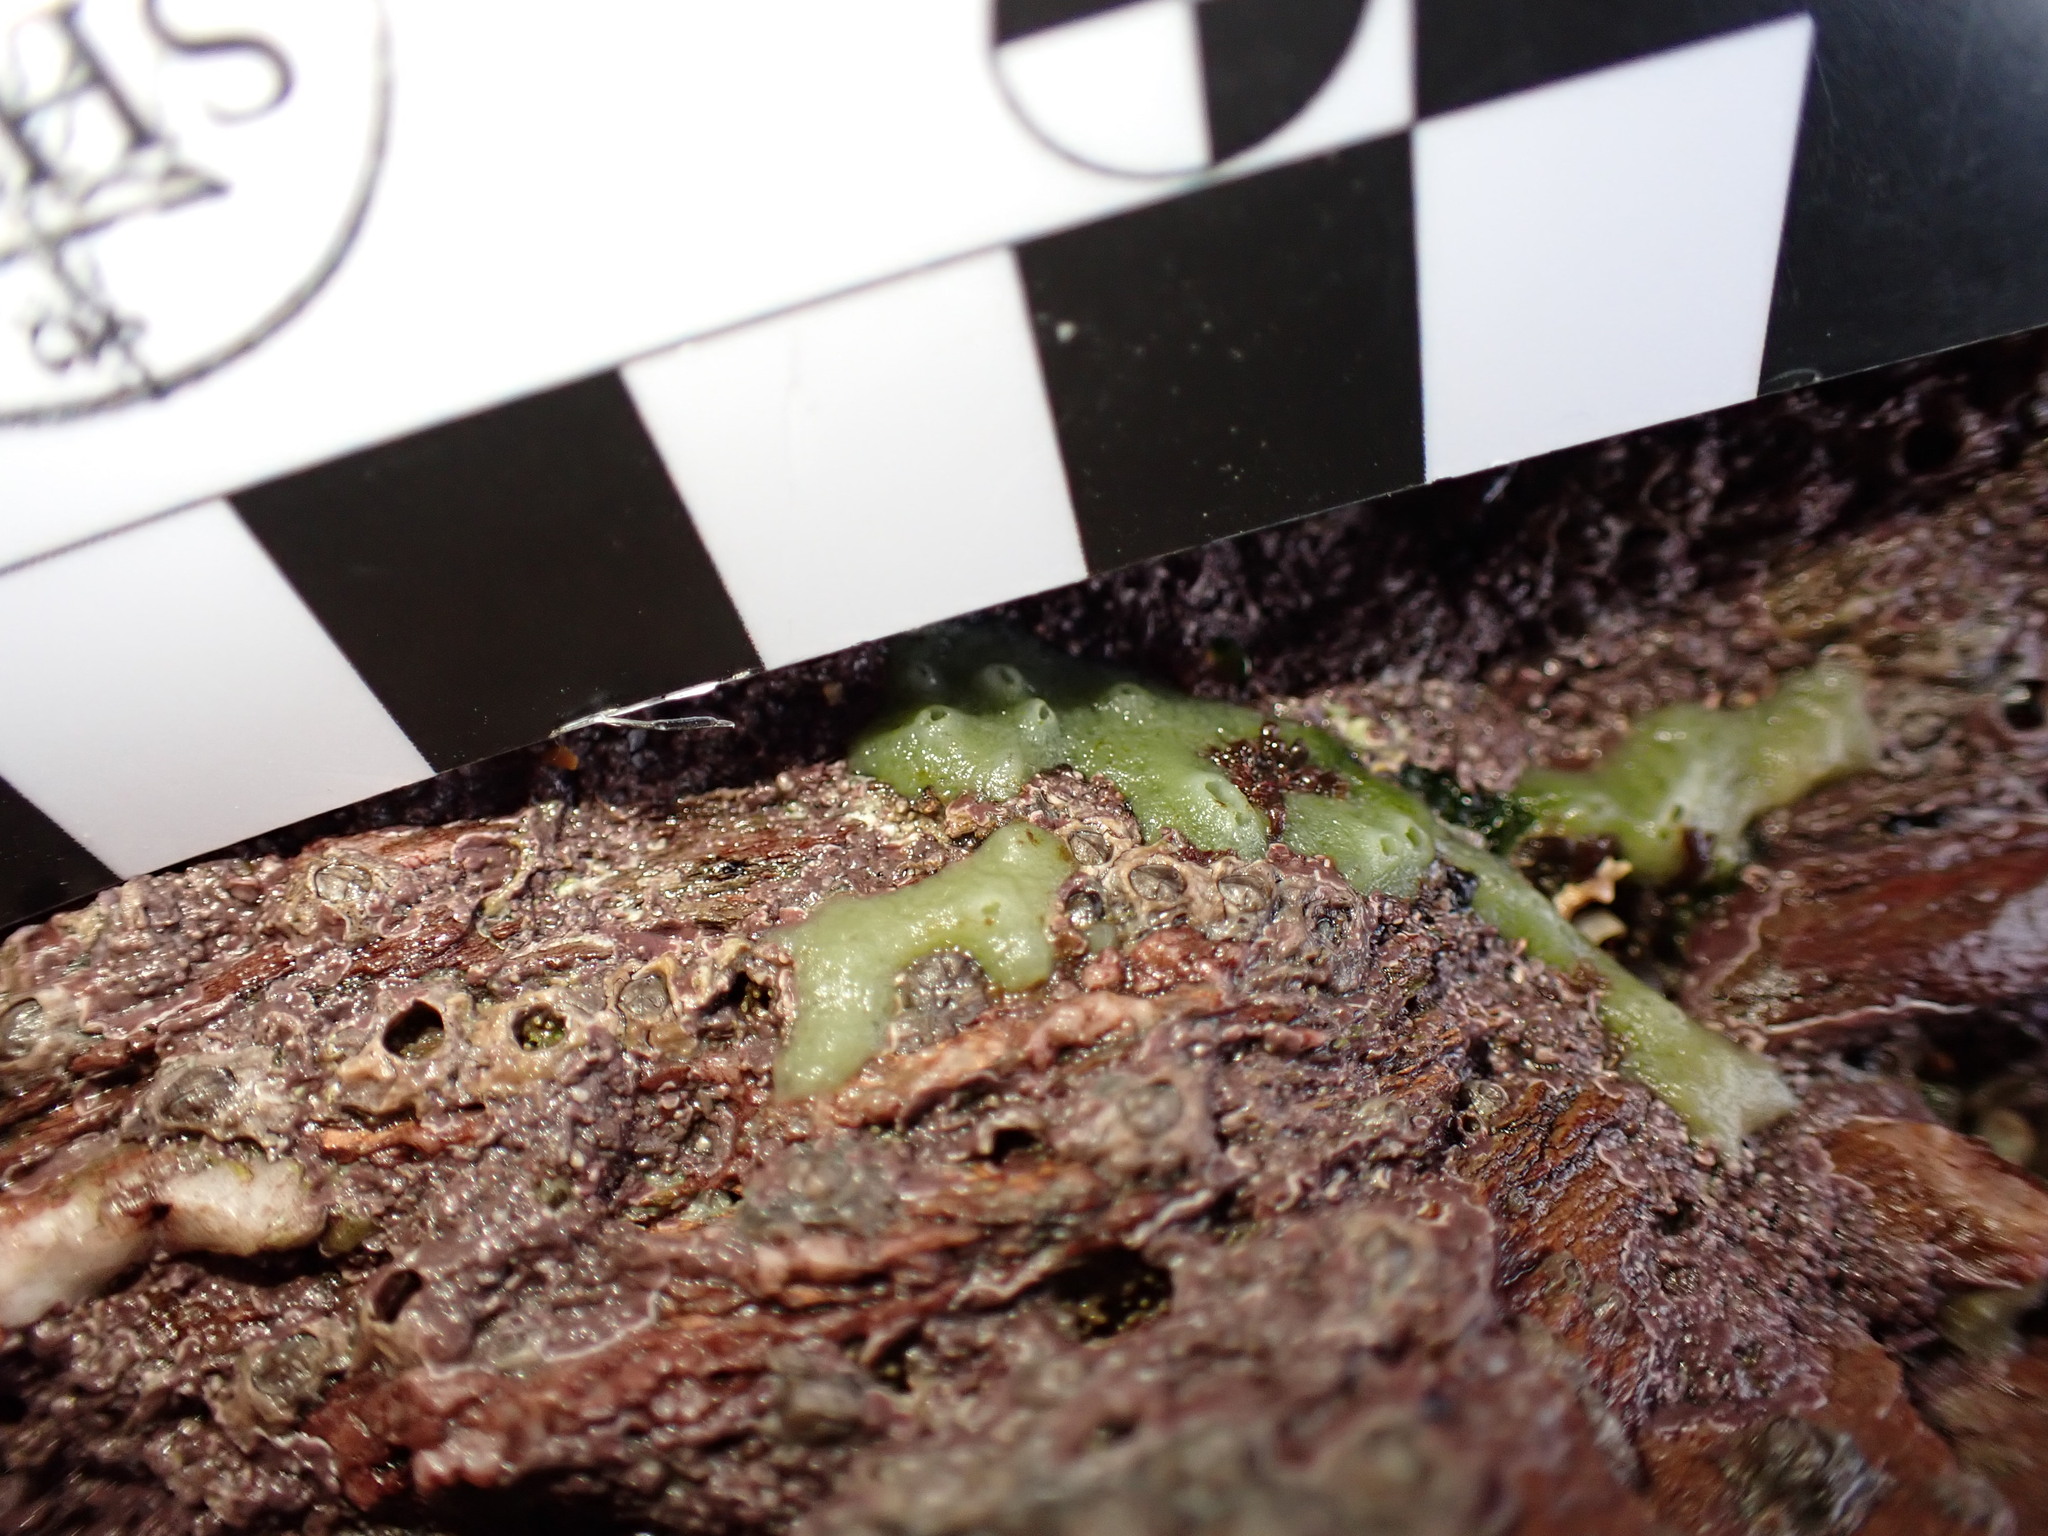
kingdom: Animalia
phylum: Porifera
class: Demospongiae
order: Suberitida
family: Halichondriidae
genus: Halichondria
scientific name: Halichondria panicea
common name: Breadcrumb sponge
